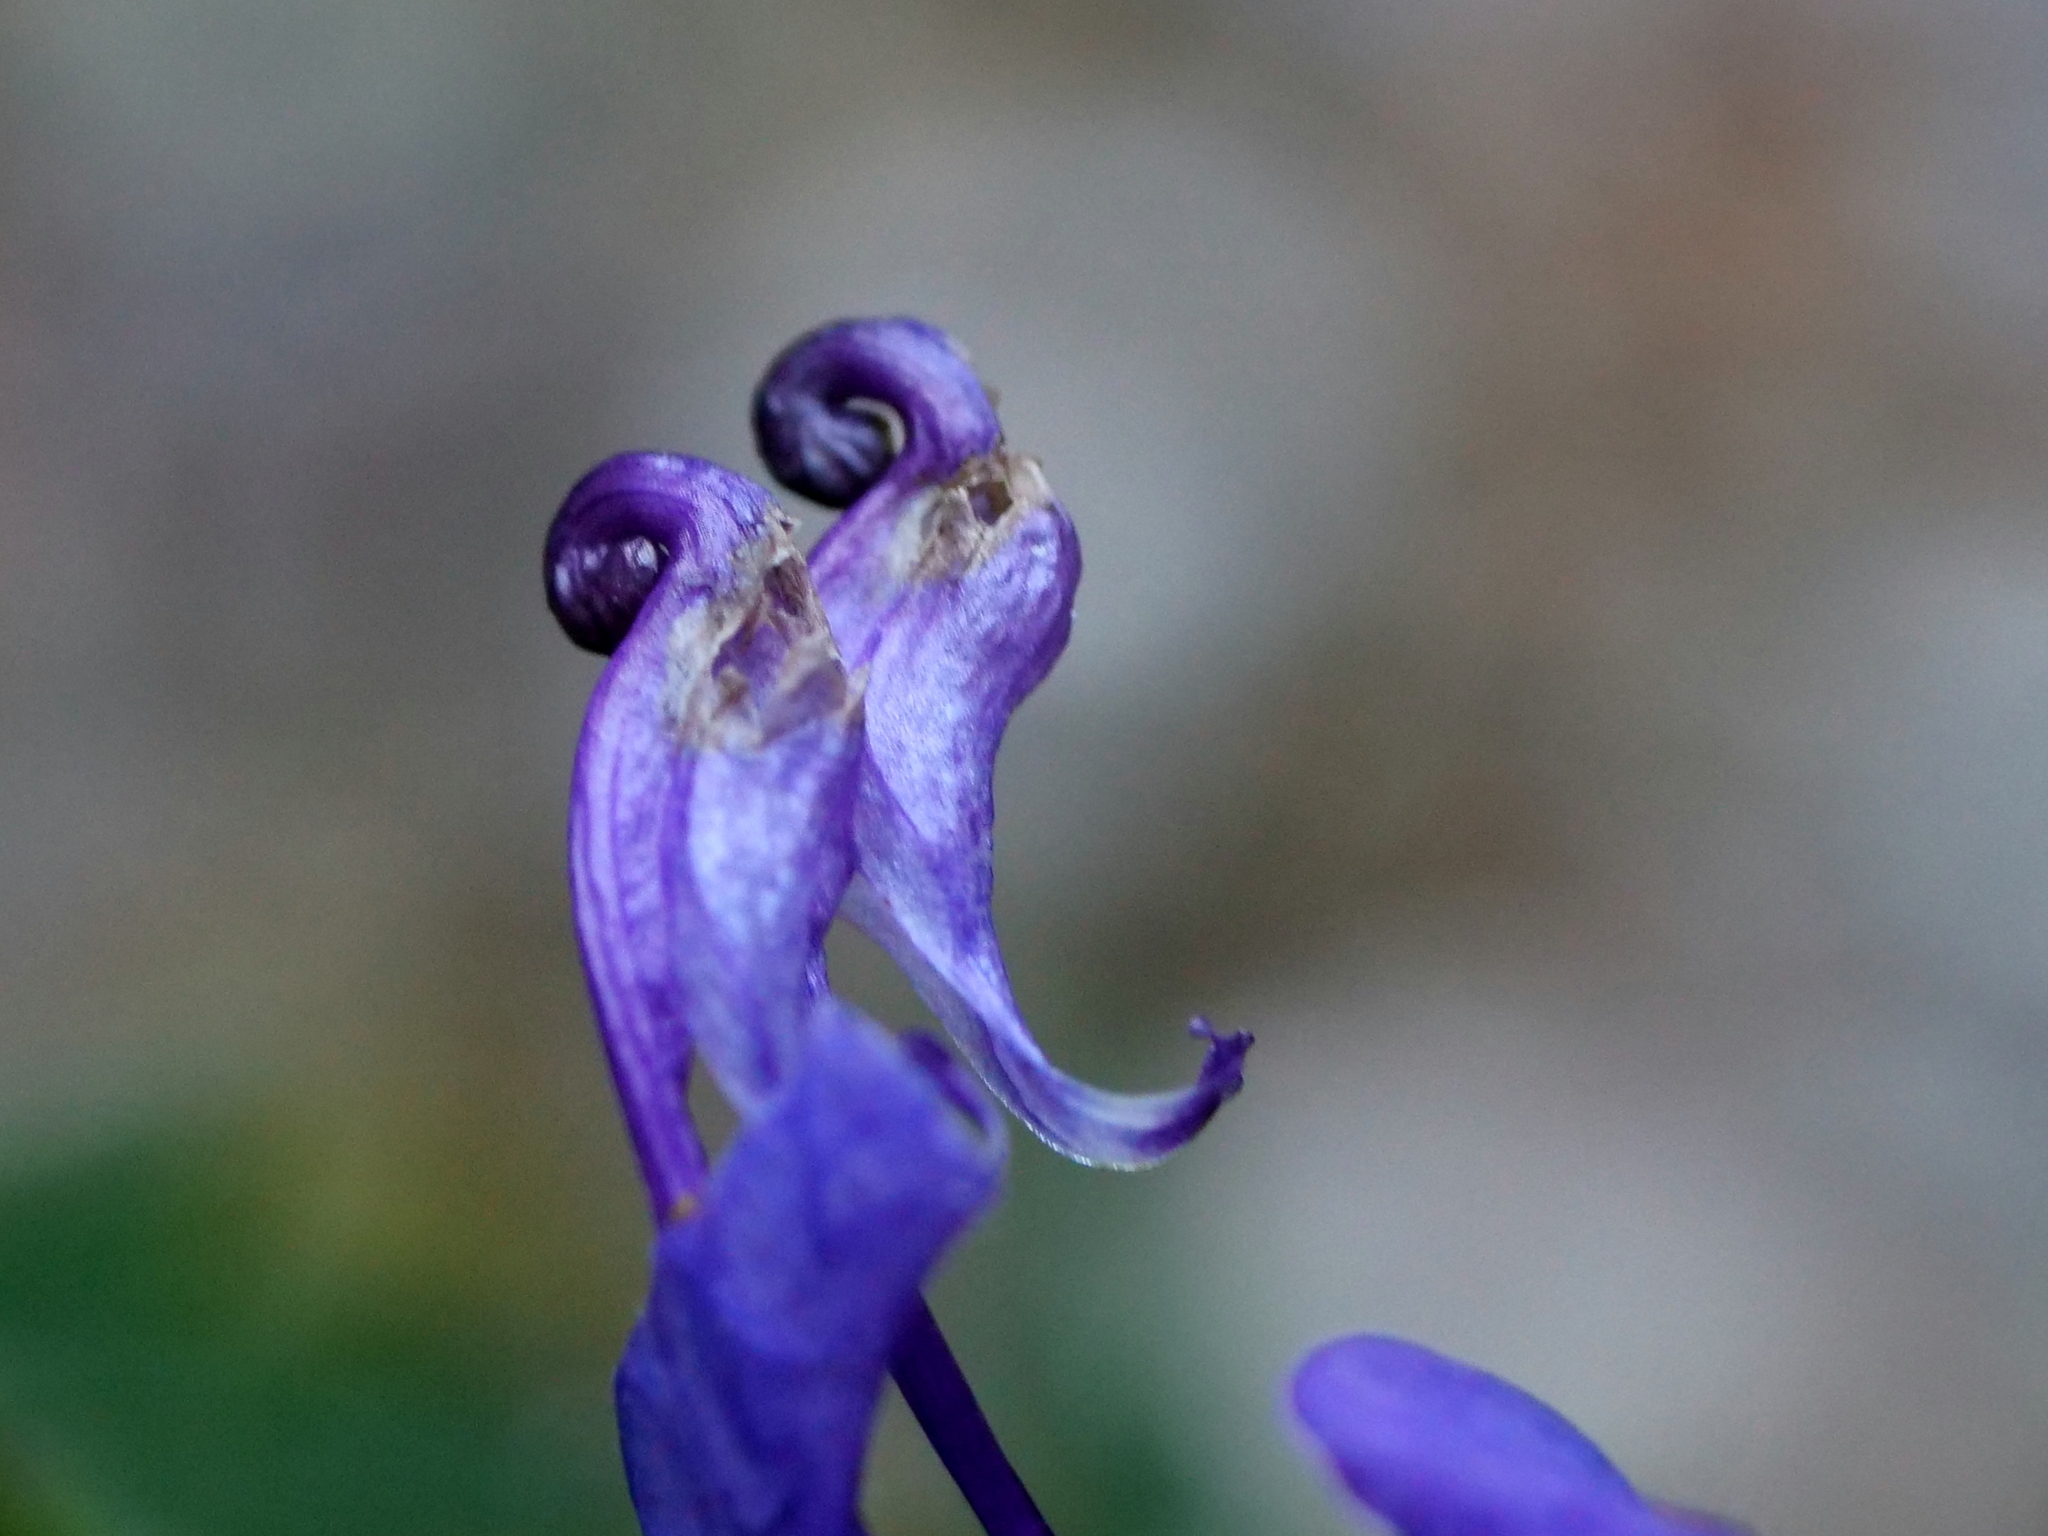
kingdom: Plantae
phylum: Tracheophyta
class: Magnoliopsida
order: Ranunculales
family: Ranunculaceae
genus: Aconitum
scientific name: Aconitum variegatum
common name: Manchurian monkshood
